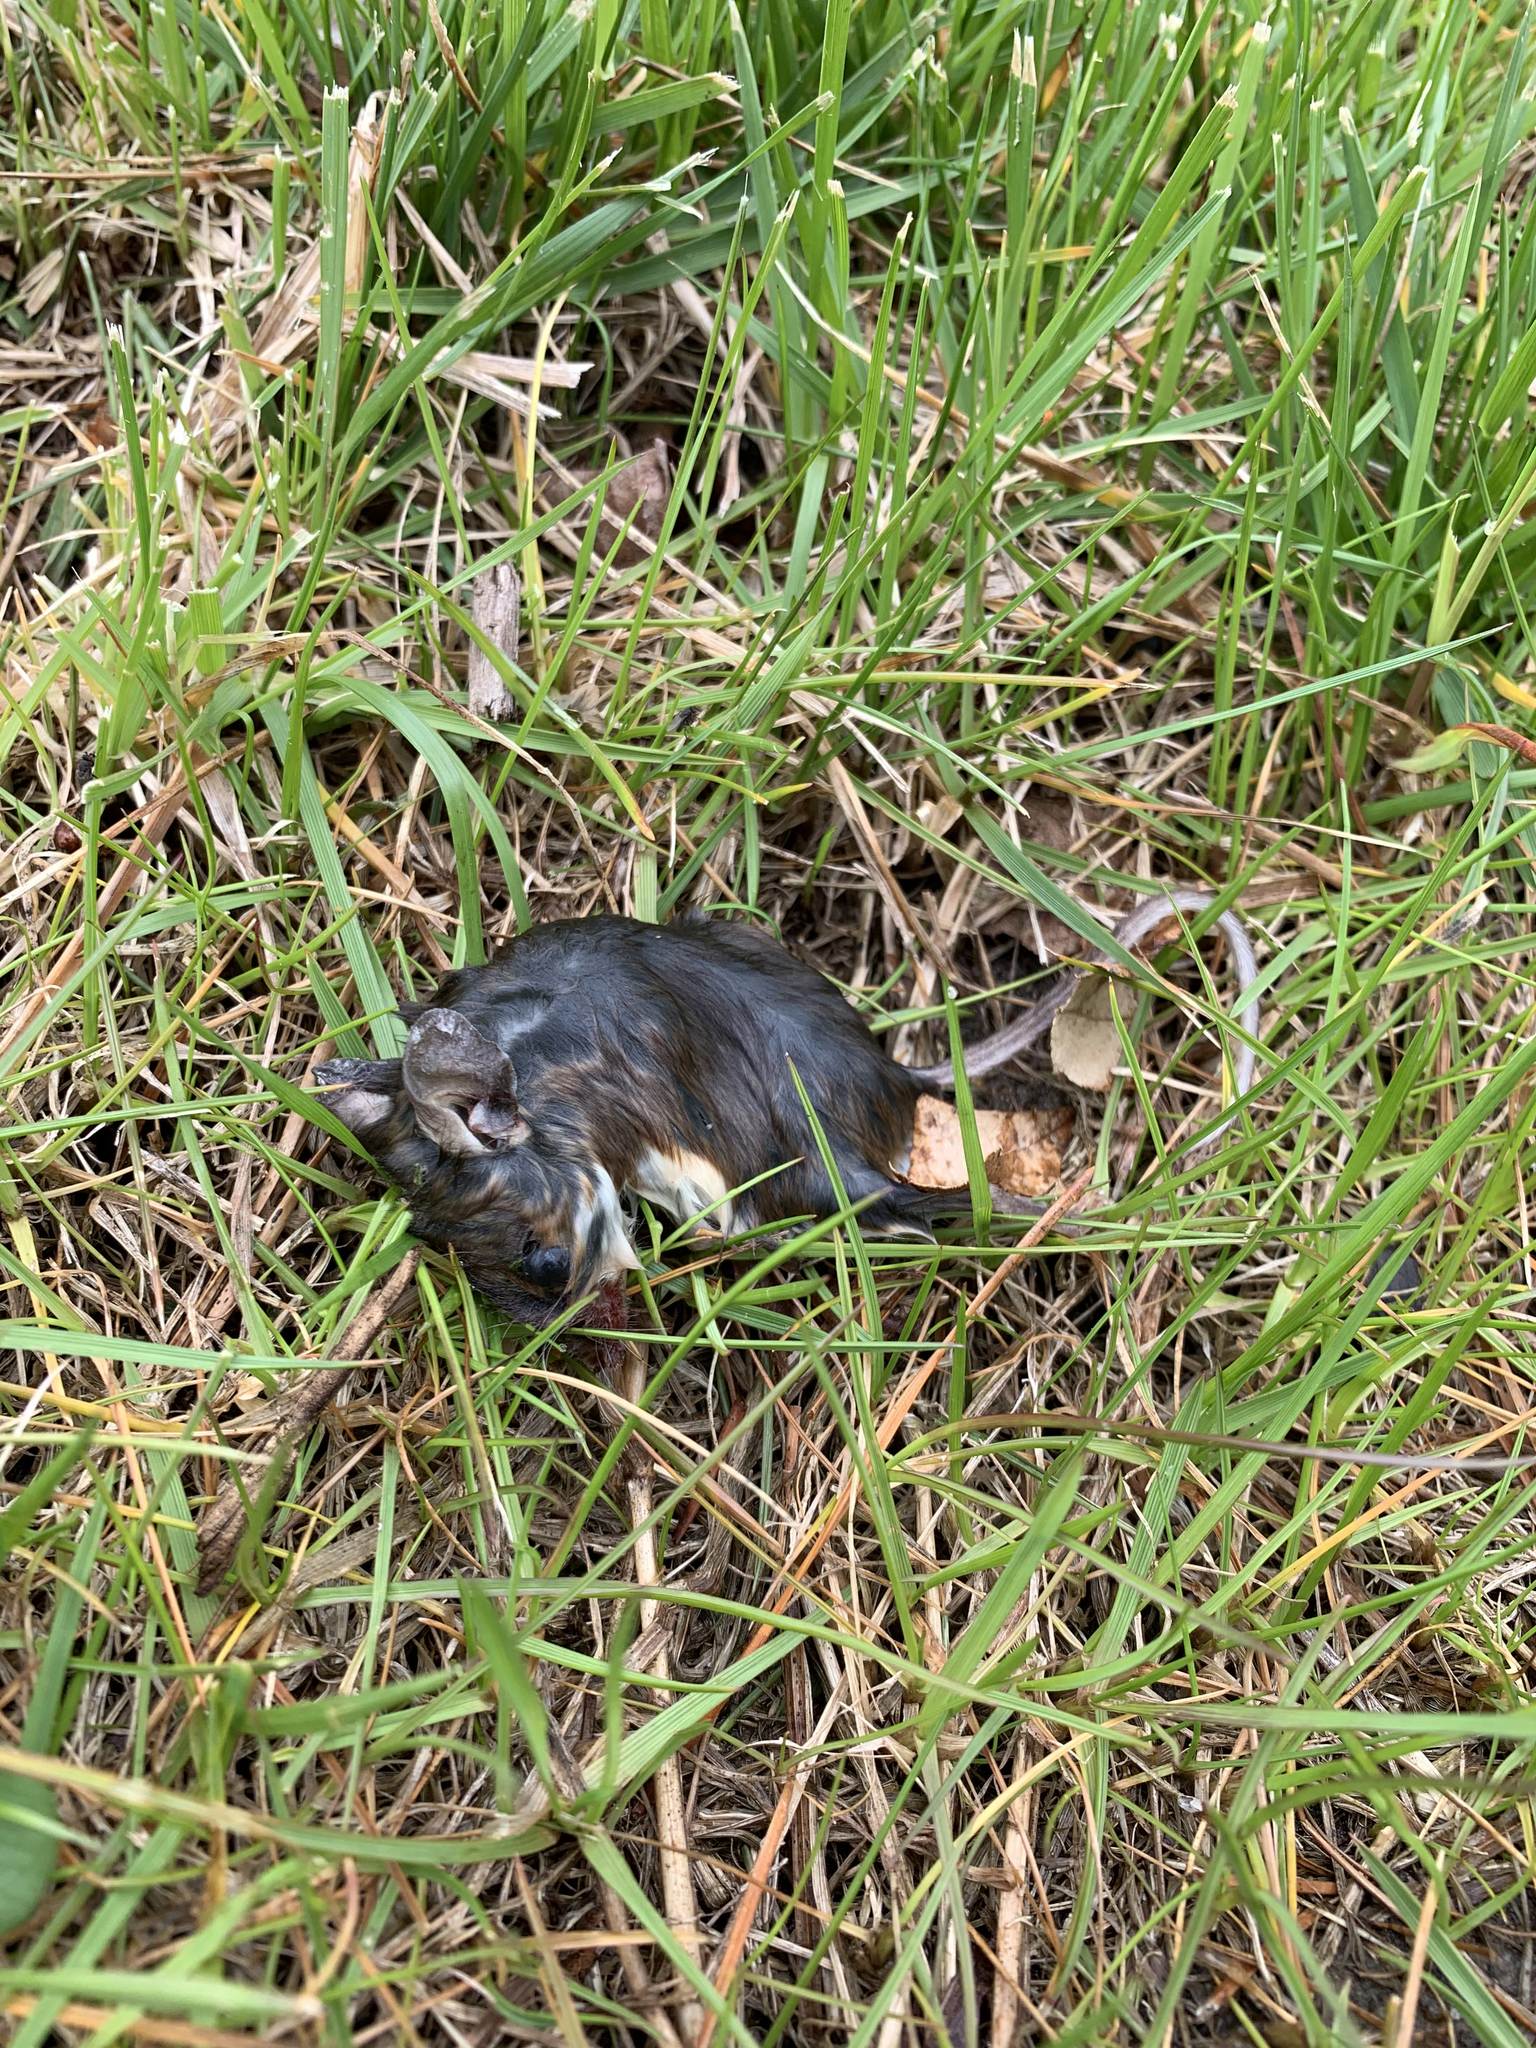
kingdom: Animalia
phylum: Chordata
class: Mammalia
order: Rodentia
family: Cricetidae
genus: Peromyscus
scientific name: Peromyscus leucopus
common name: White-footed deermouse
